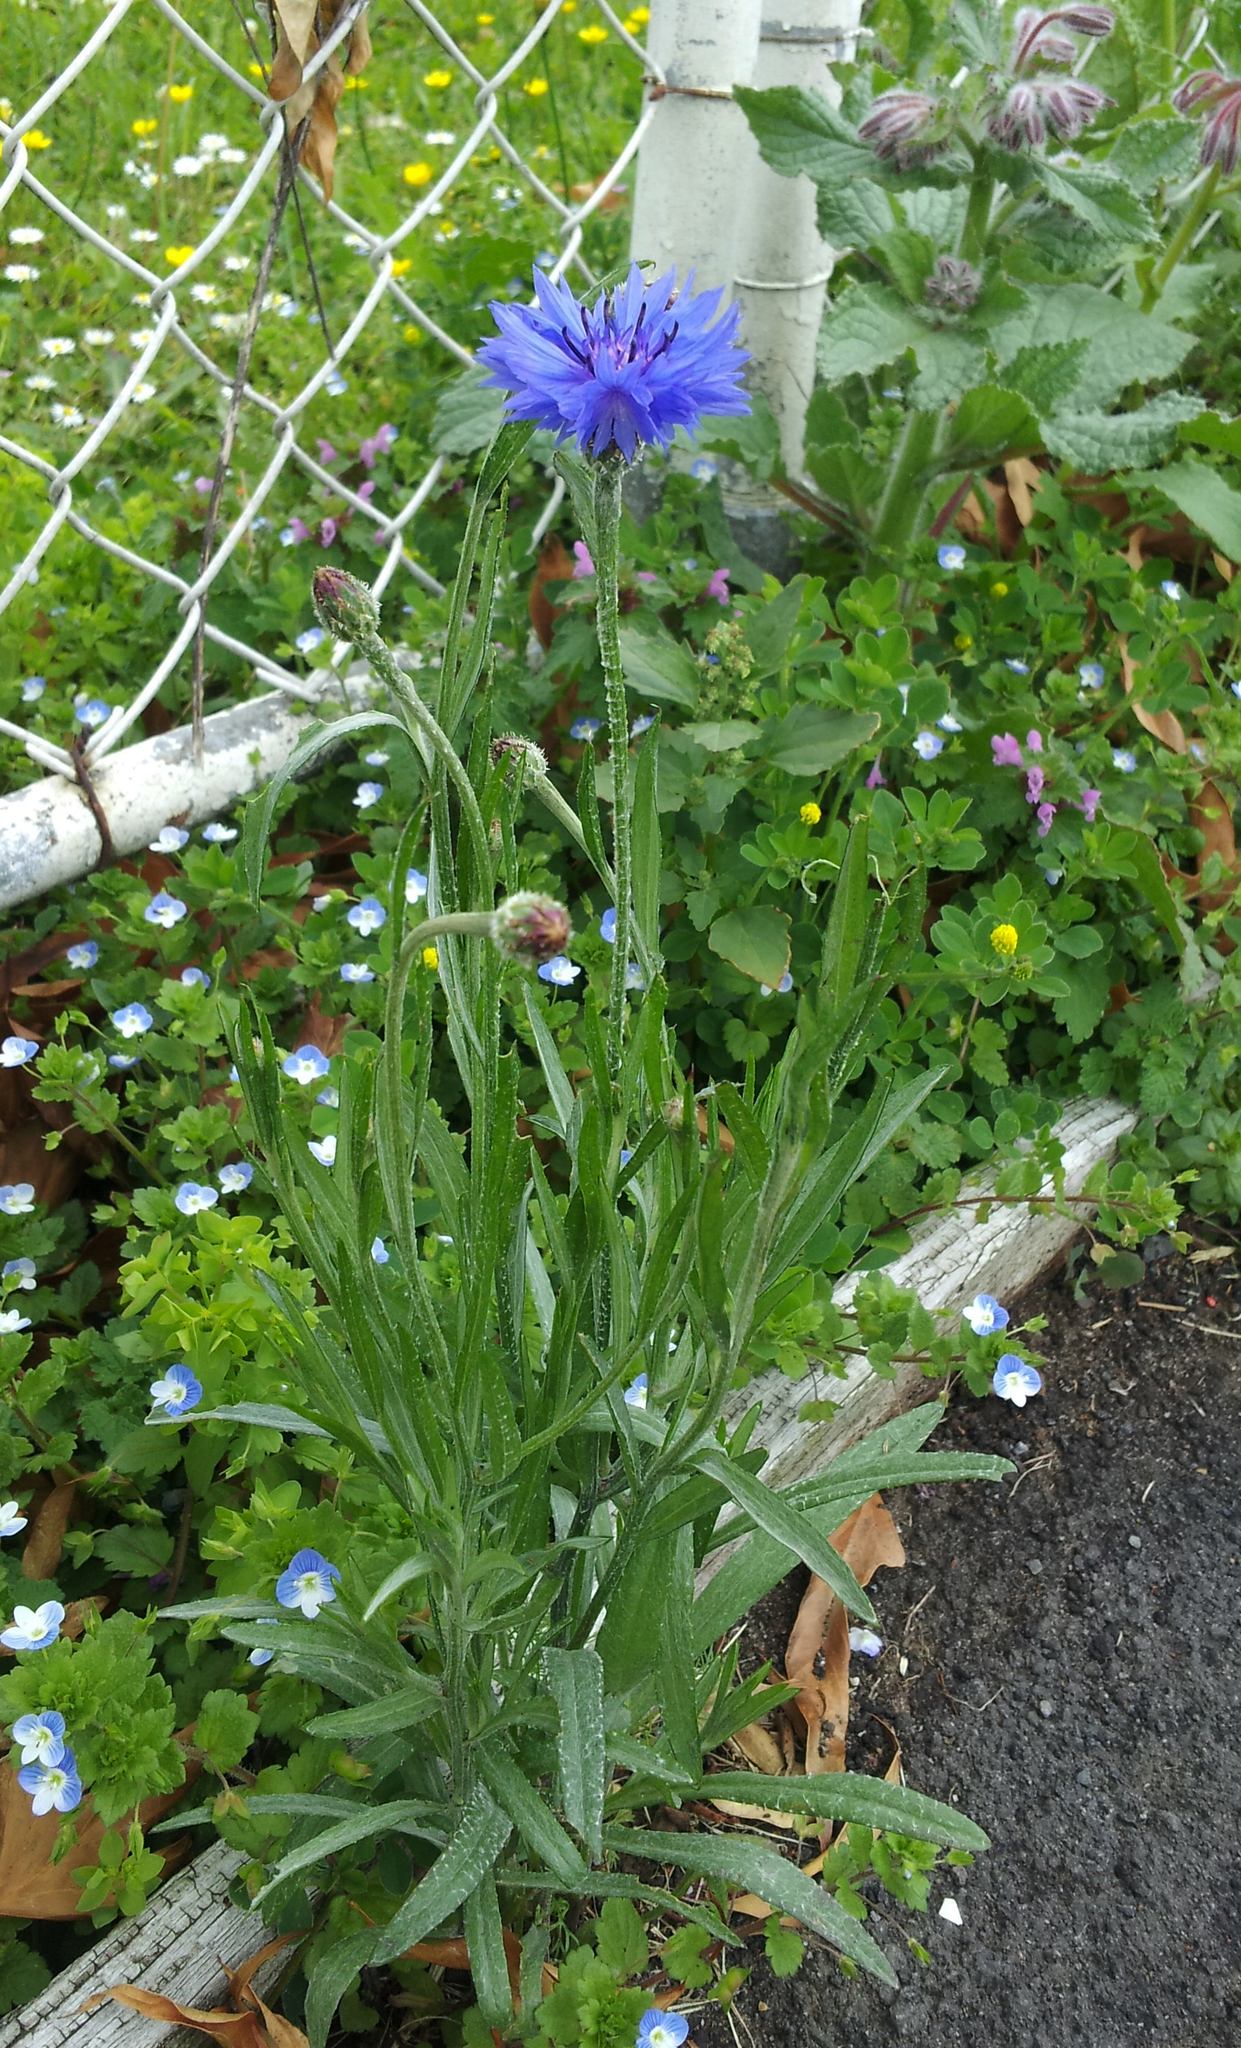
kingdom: Plantae
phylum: Tracheophyta
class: Magnoliopsida
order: Asterales
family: Asteraceae
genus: Centaurea
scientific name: Centaurea cyanus
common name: Cornflower
